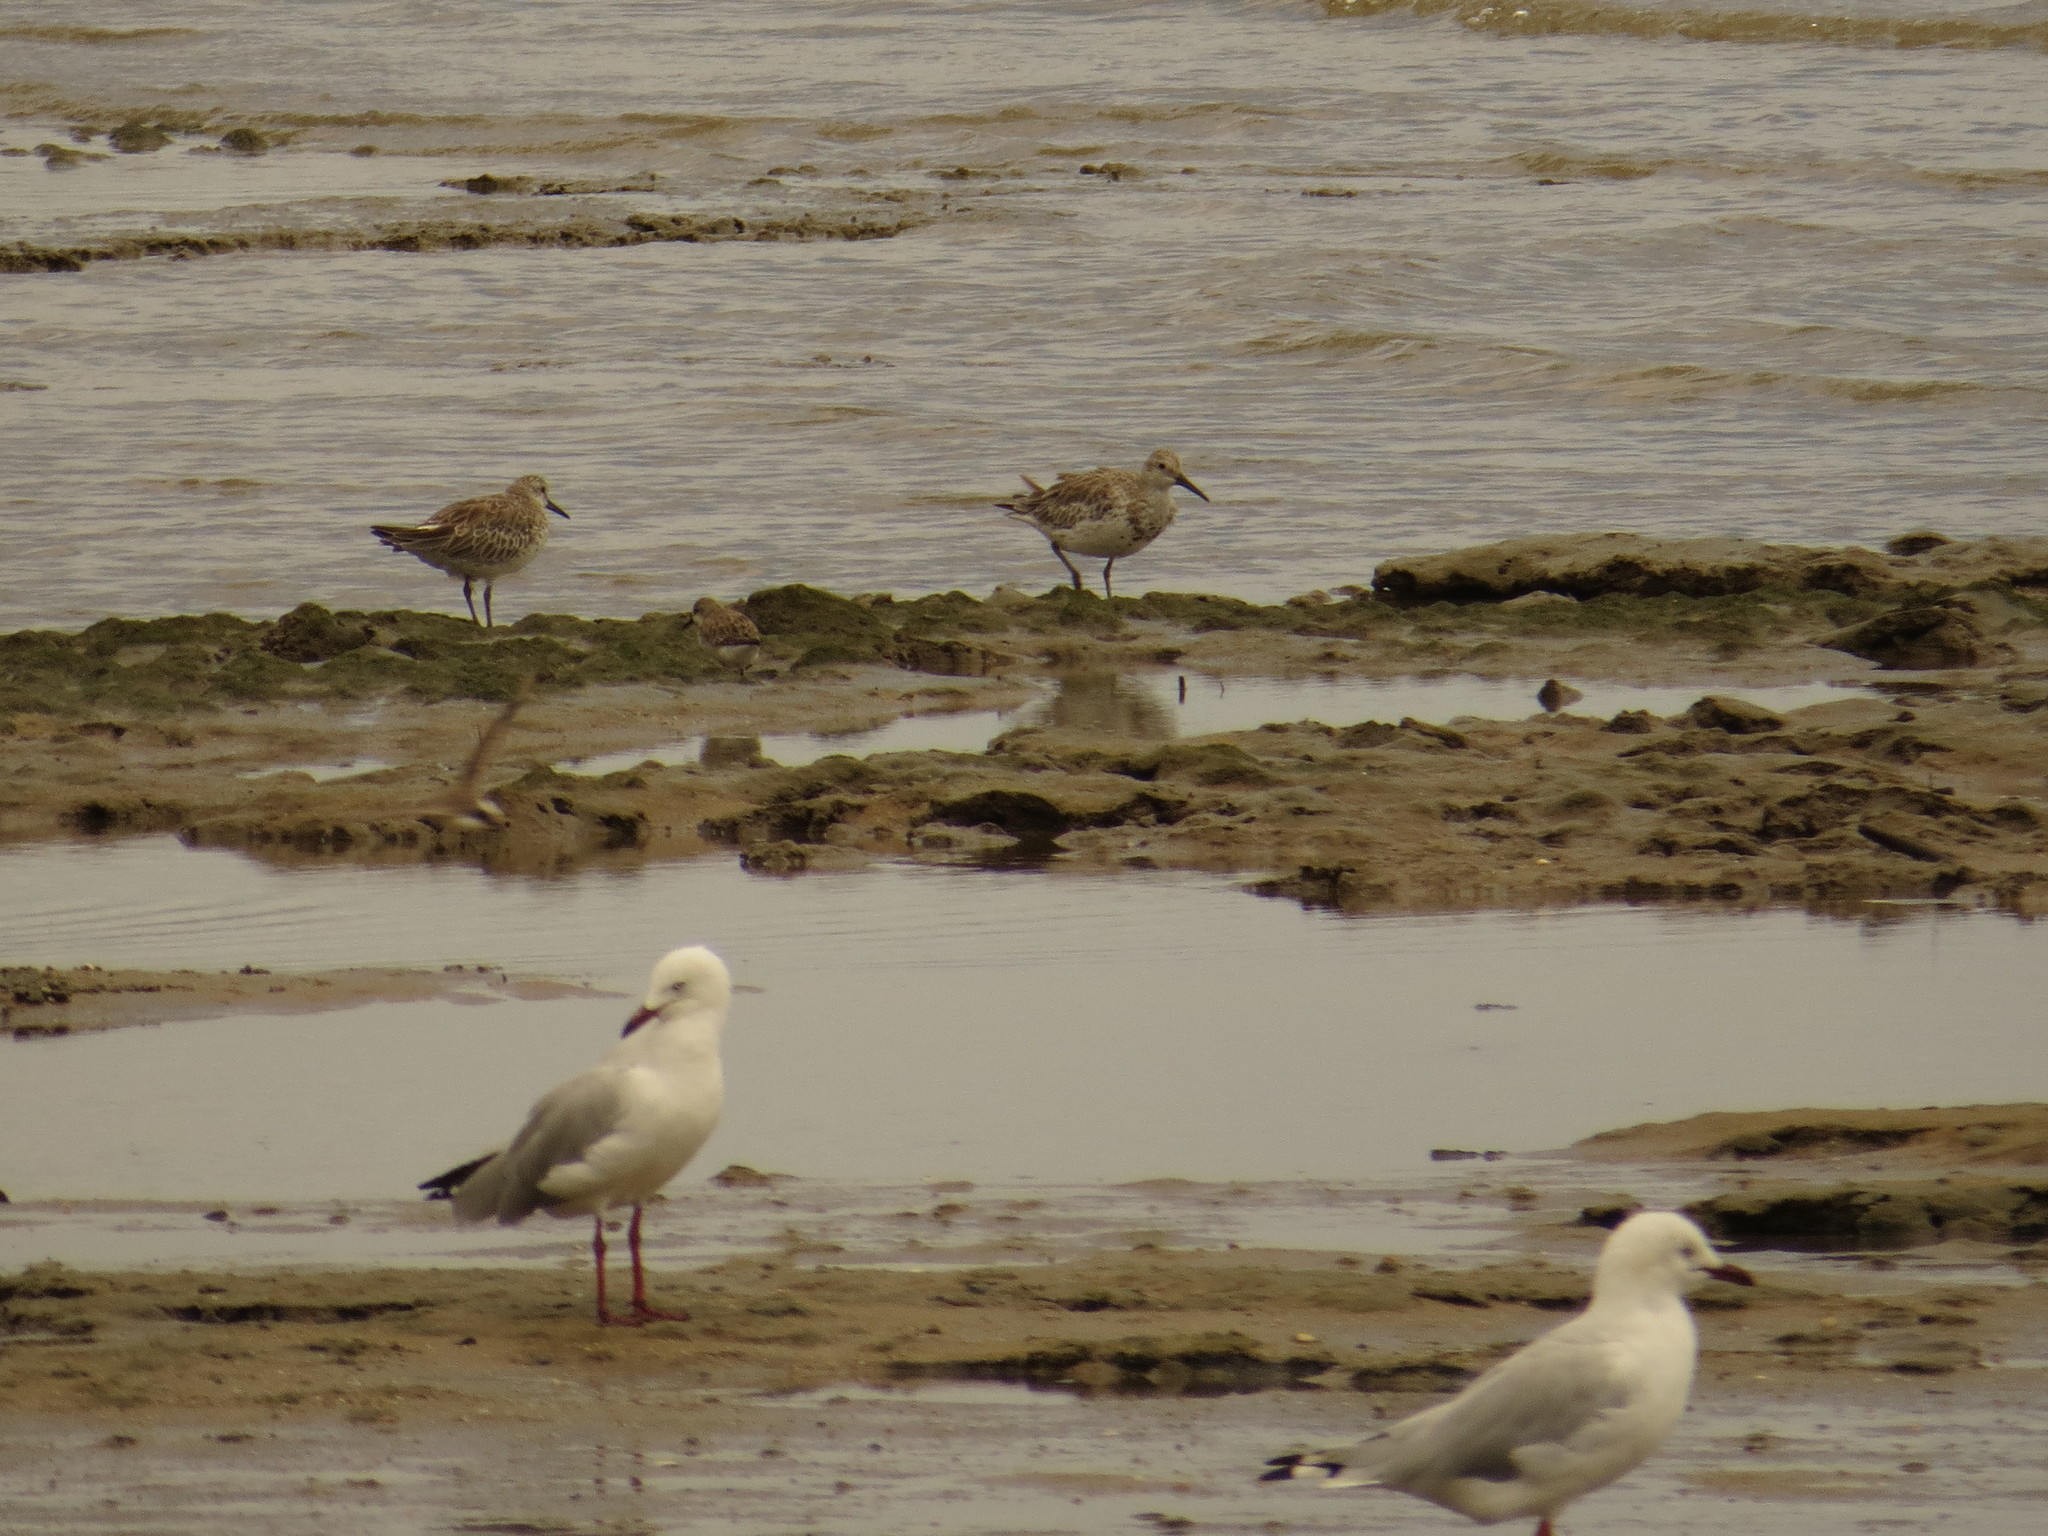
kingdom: Animalia
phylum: Chordata
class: Aves
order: Charadriiformes
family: Scolopacidae
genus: Calidris
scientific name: Calidris tenuirostris
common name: Great knot
